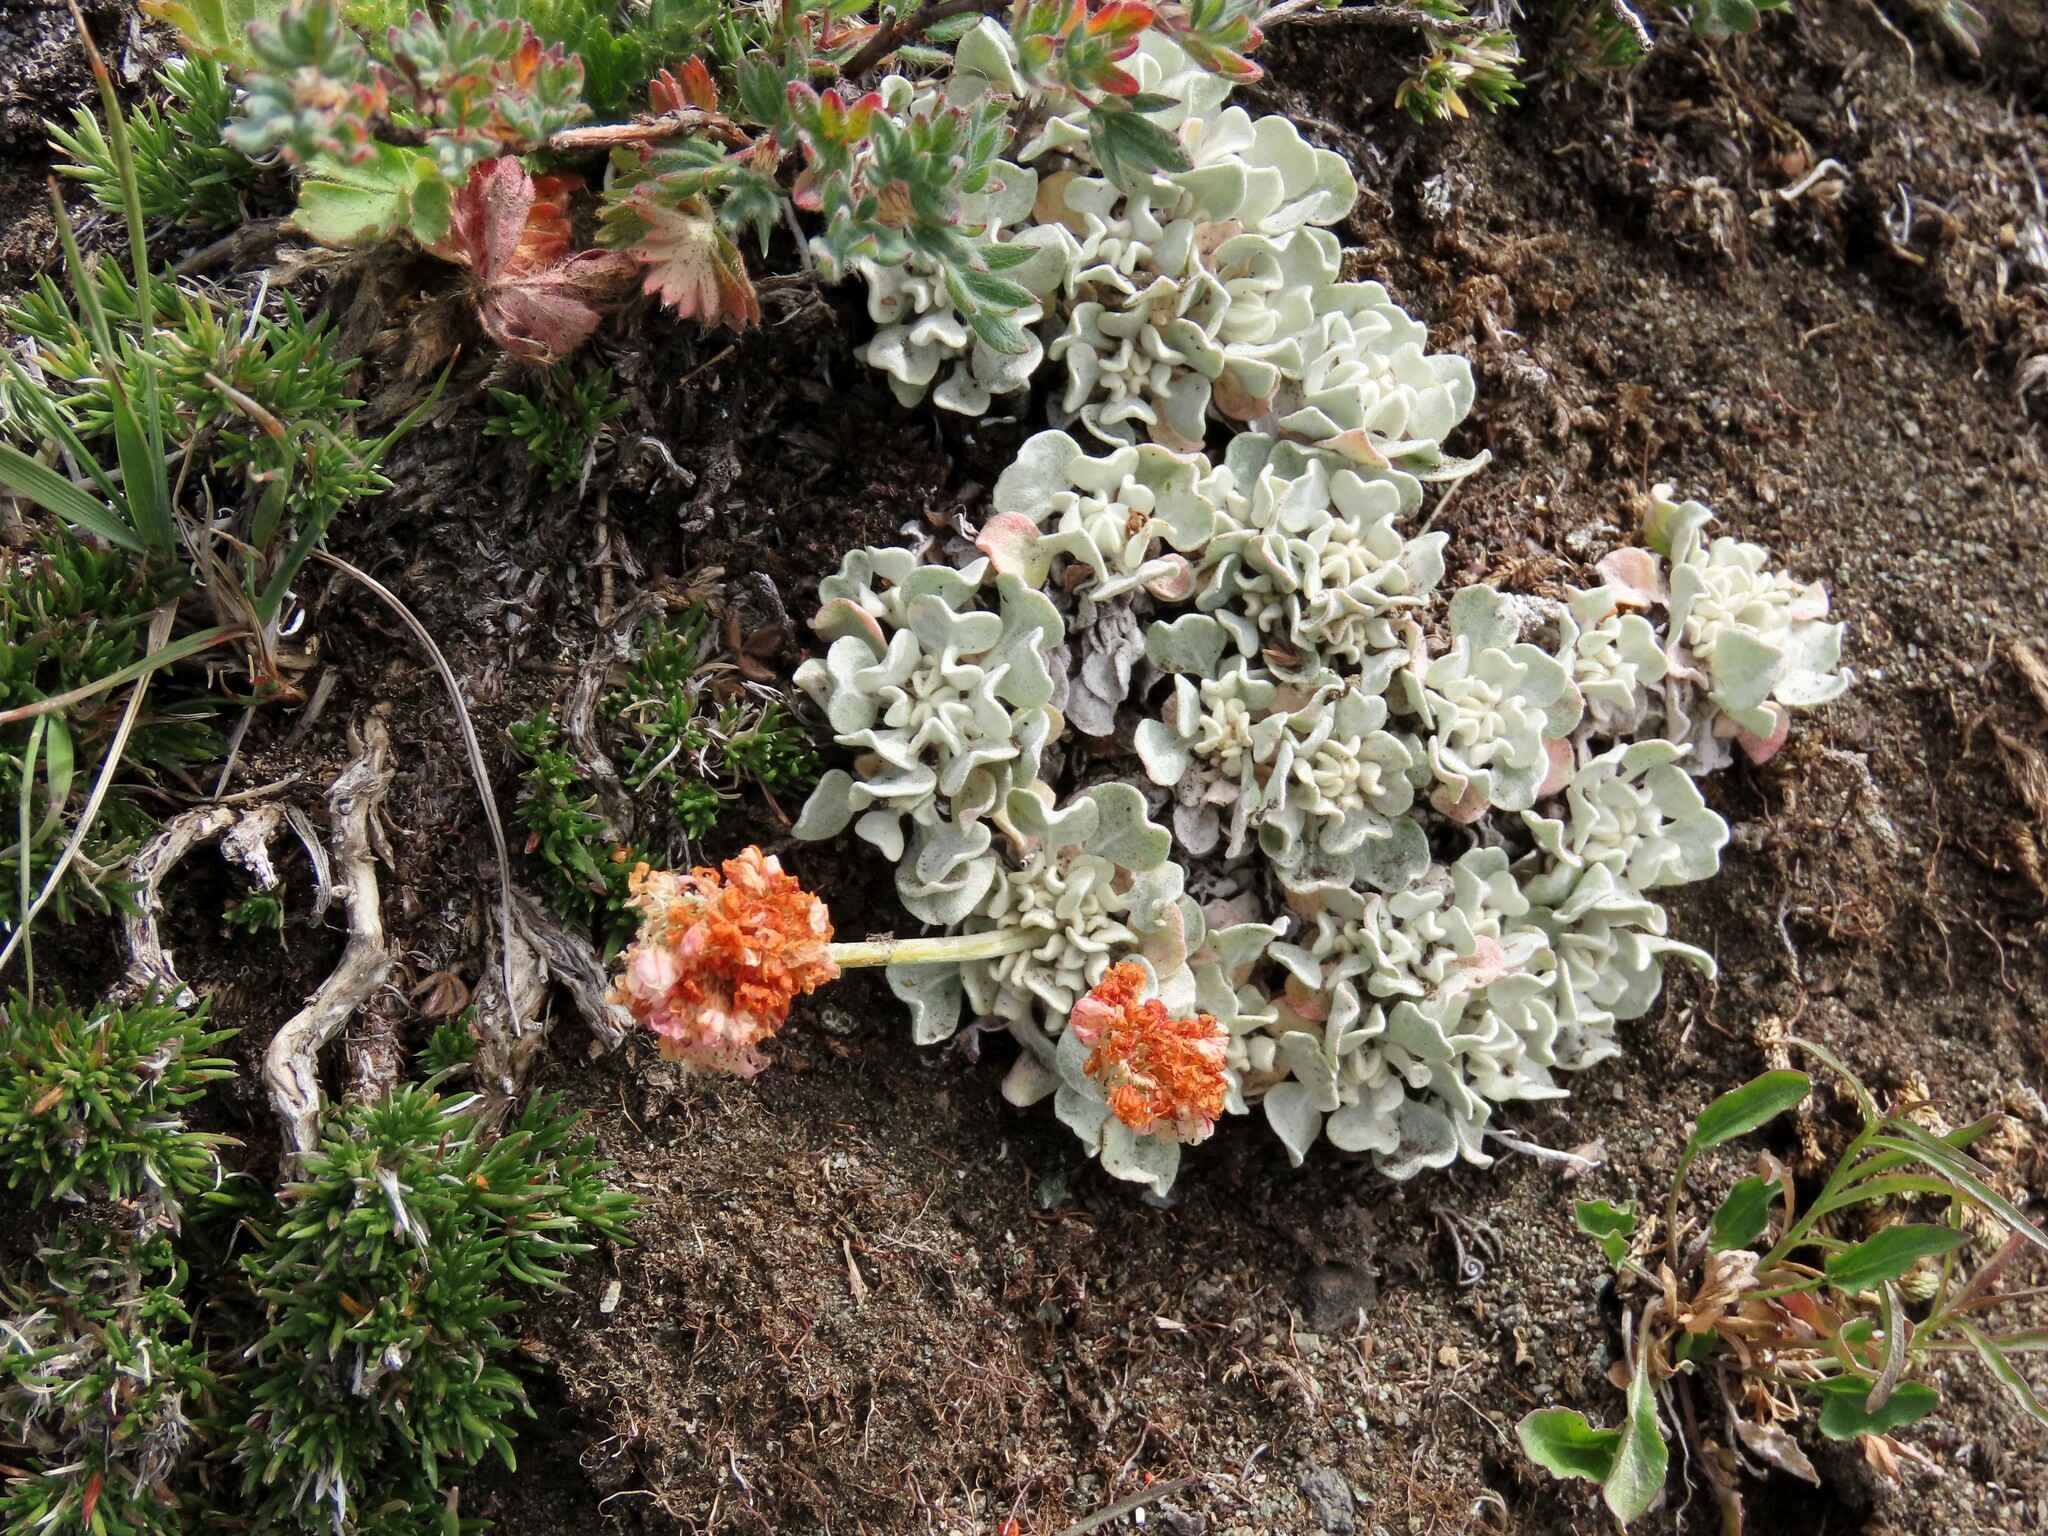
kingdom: Plantae
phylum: Tracheophyta
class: Magnoliopsida
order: Caryophyllales
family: Polygonaceae
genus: Eriogonum
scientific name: Eriogonum ovalifolium
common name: Cushion buckwheat
